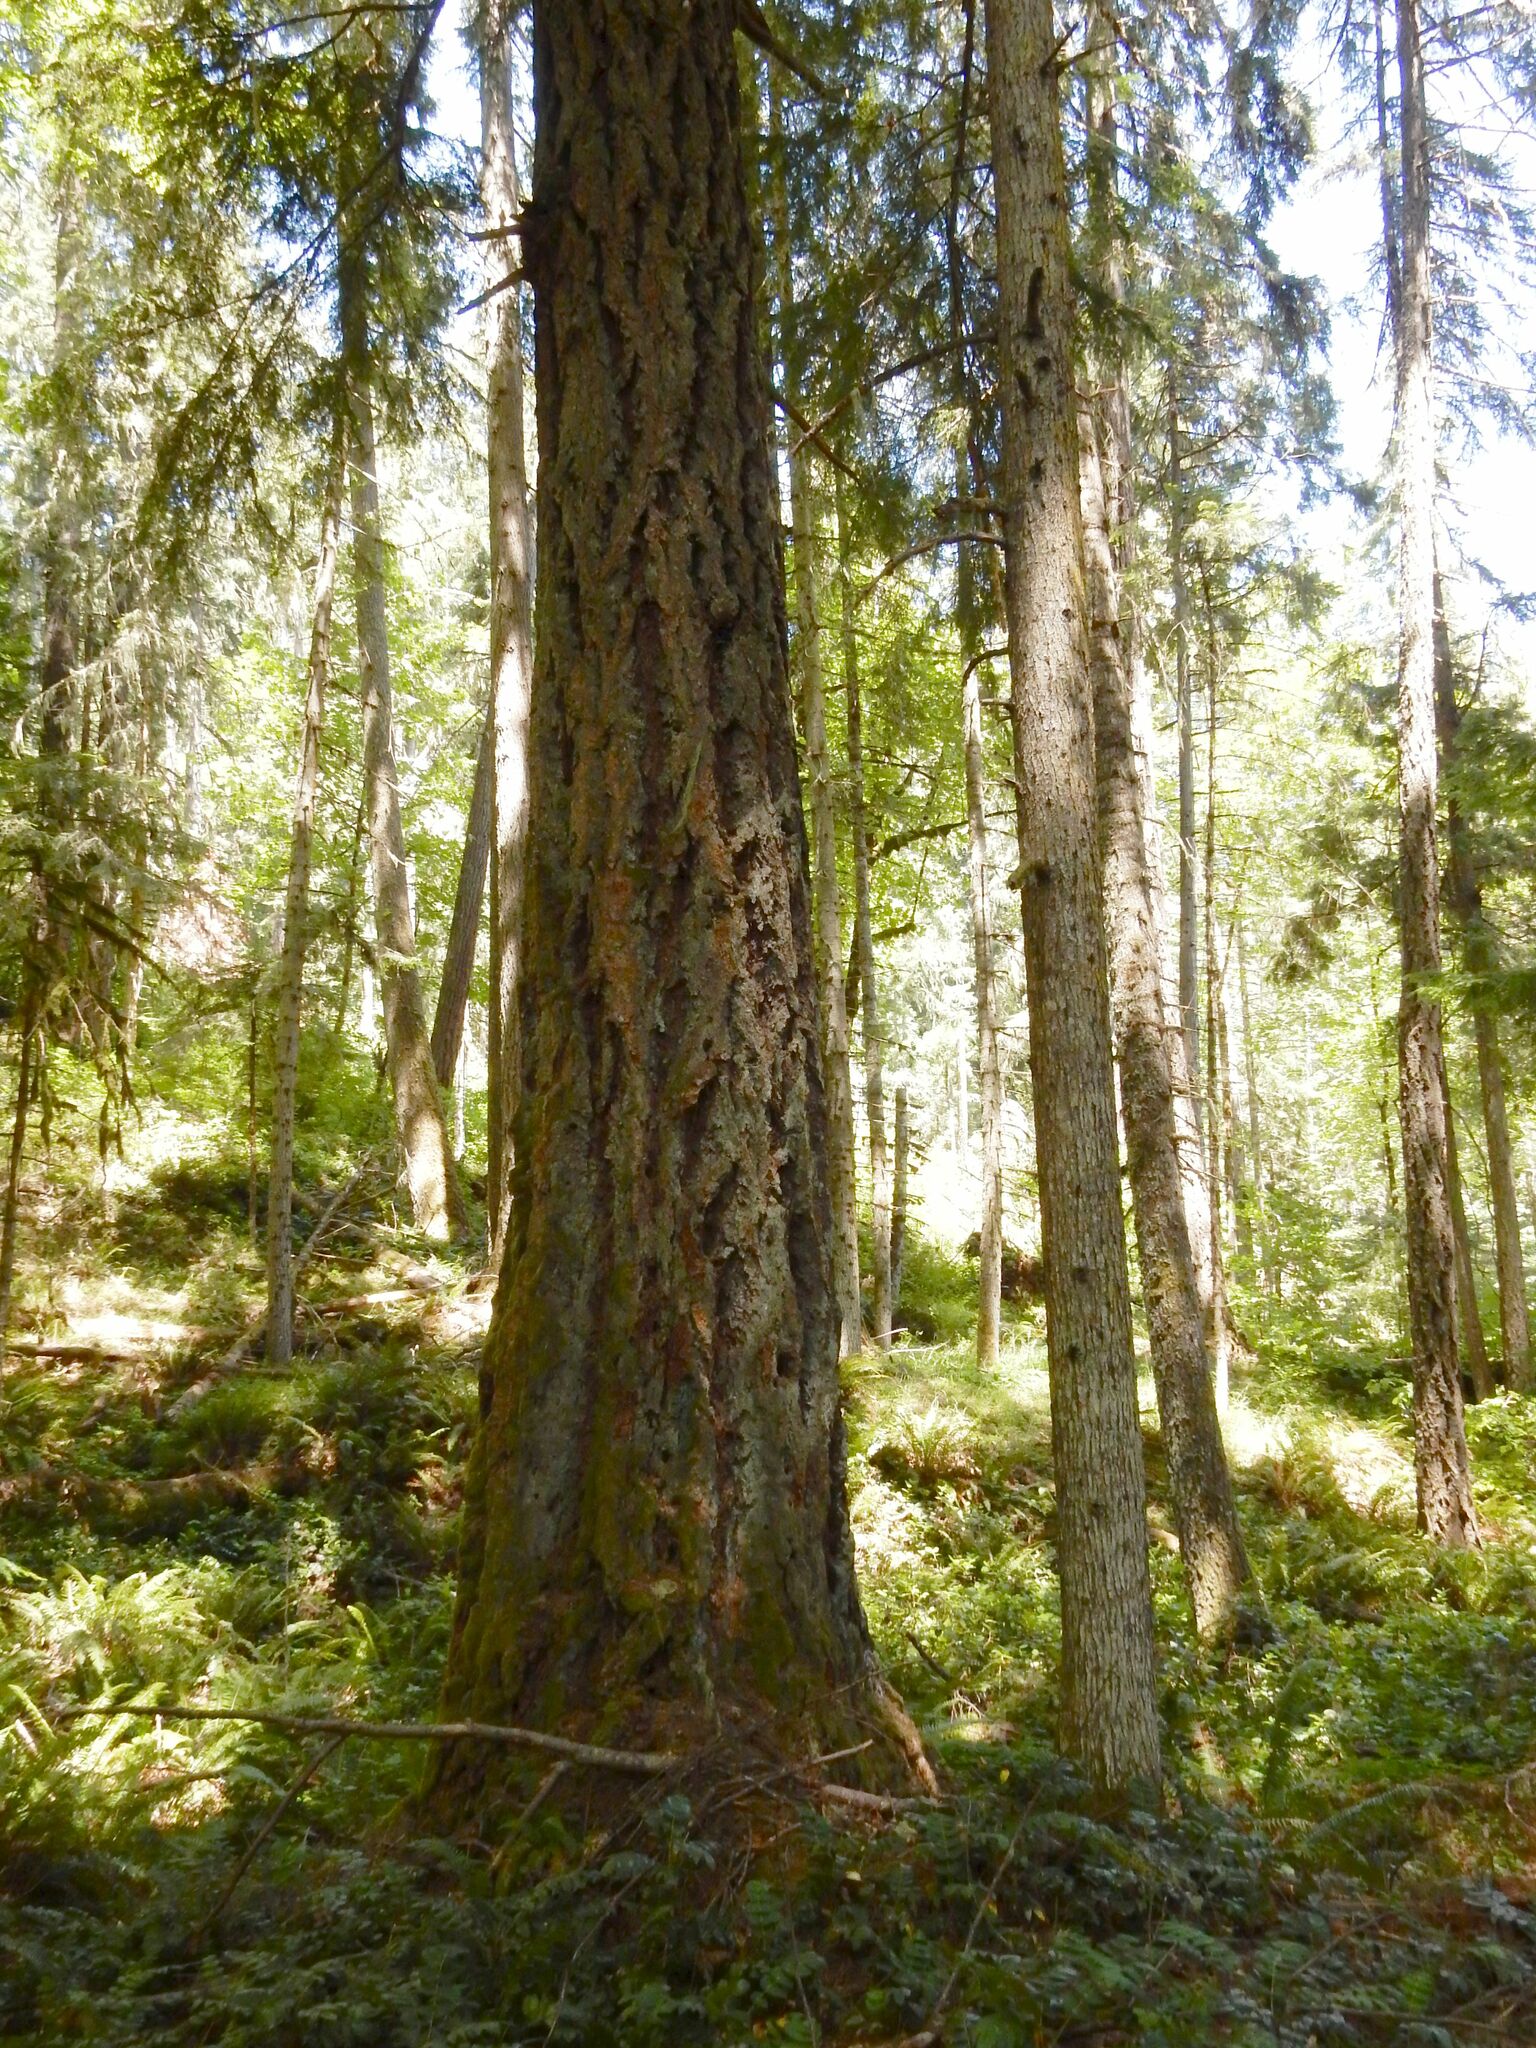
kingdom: Plantae
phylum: Tracheophyta
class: Pinopsida
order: Pinales
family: Pinaceae
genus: Pseudotsuga
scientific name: Pseudotsuga menziesii
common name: Douglas fir
